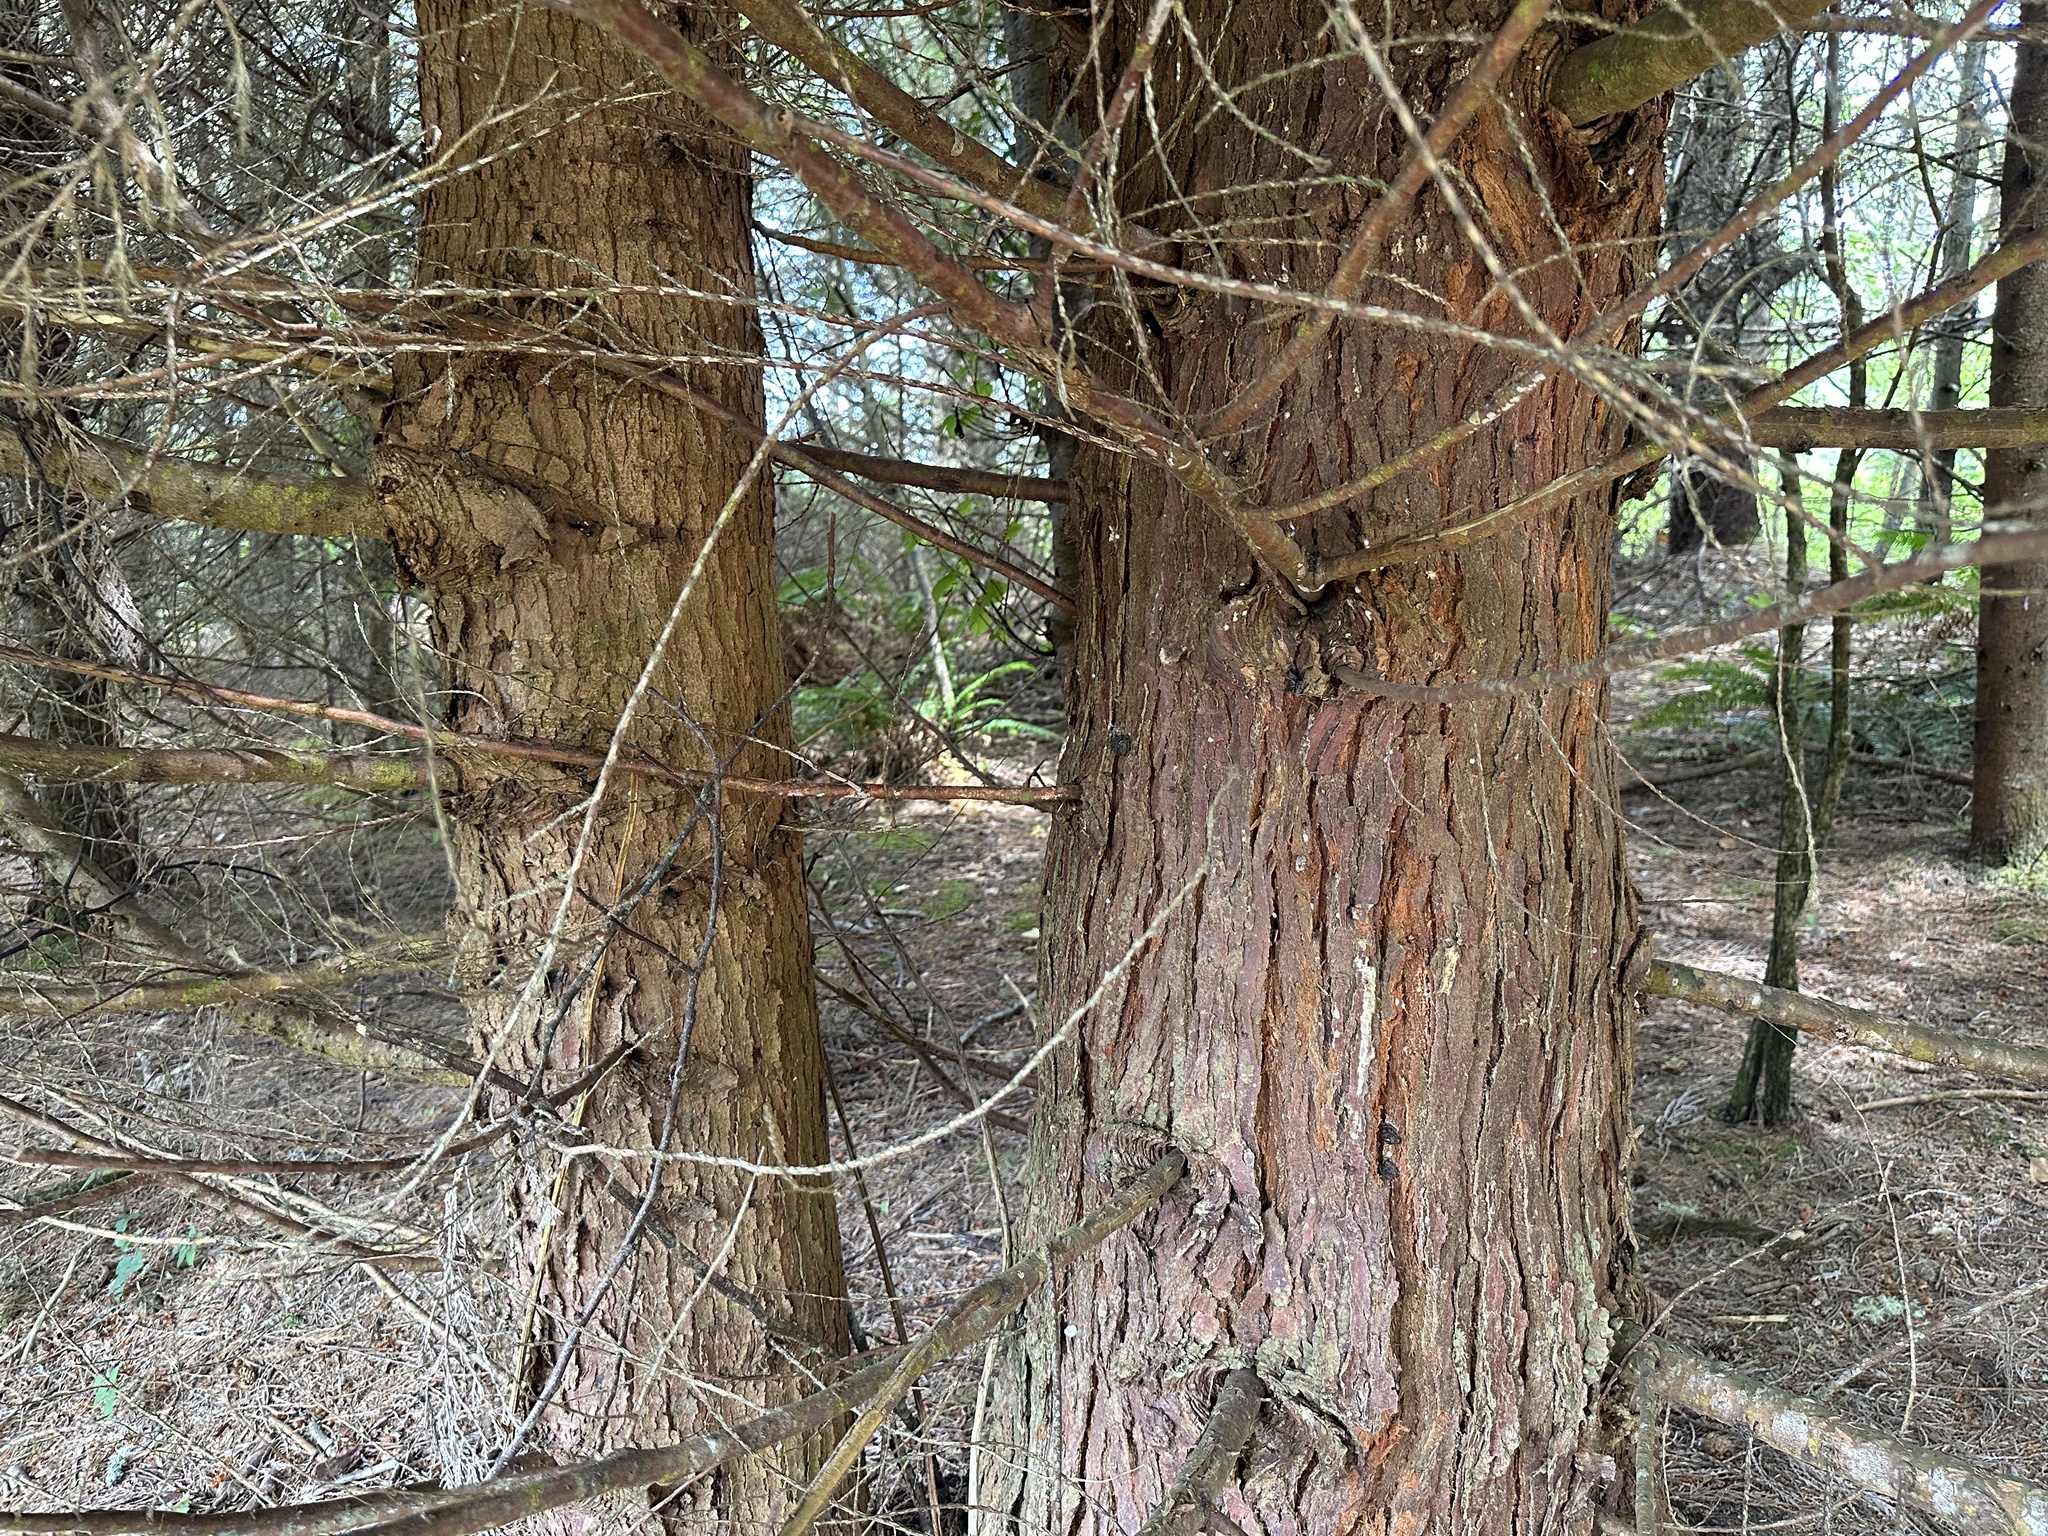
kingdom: Plantae
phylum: Tracheophyta
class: Pinopsida
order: Pinales
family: Cupressaceae
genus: Chamaecyparis
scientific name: Chamaecyparis lawsoniana
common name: Lawson's cypress
